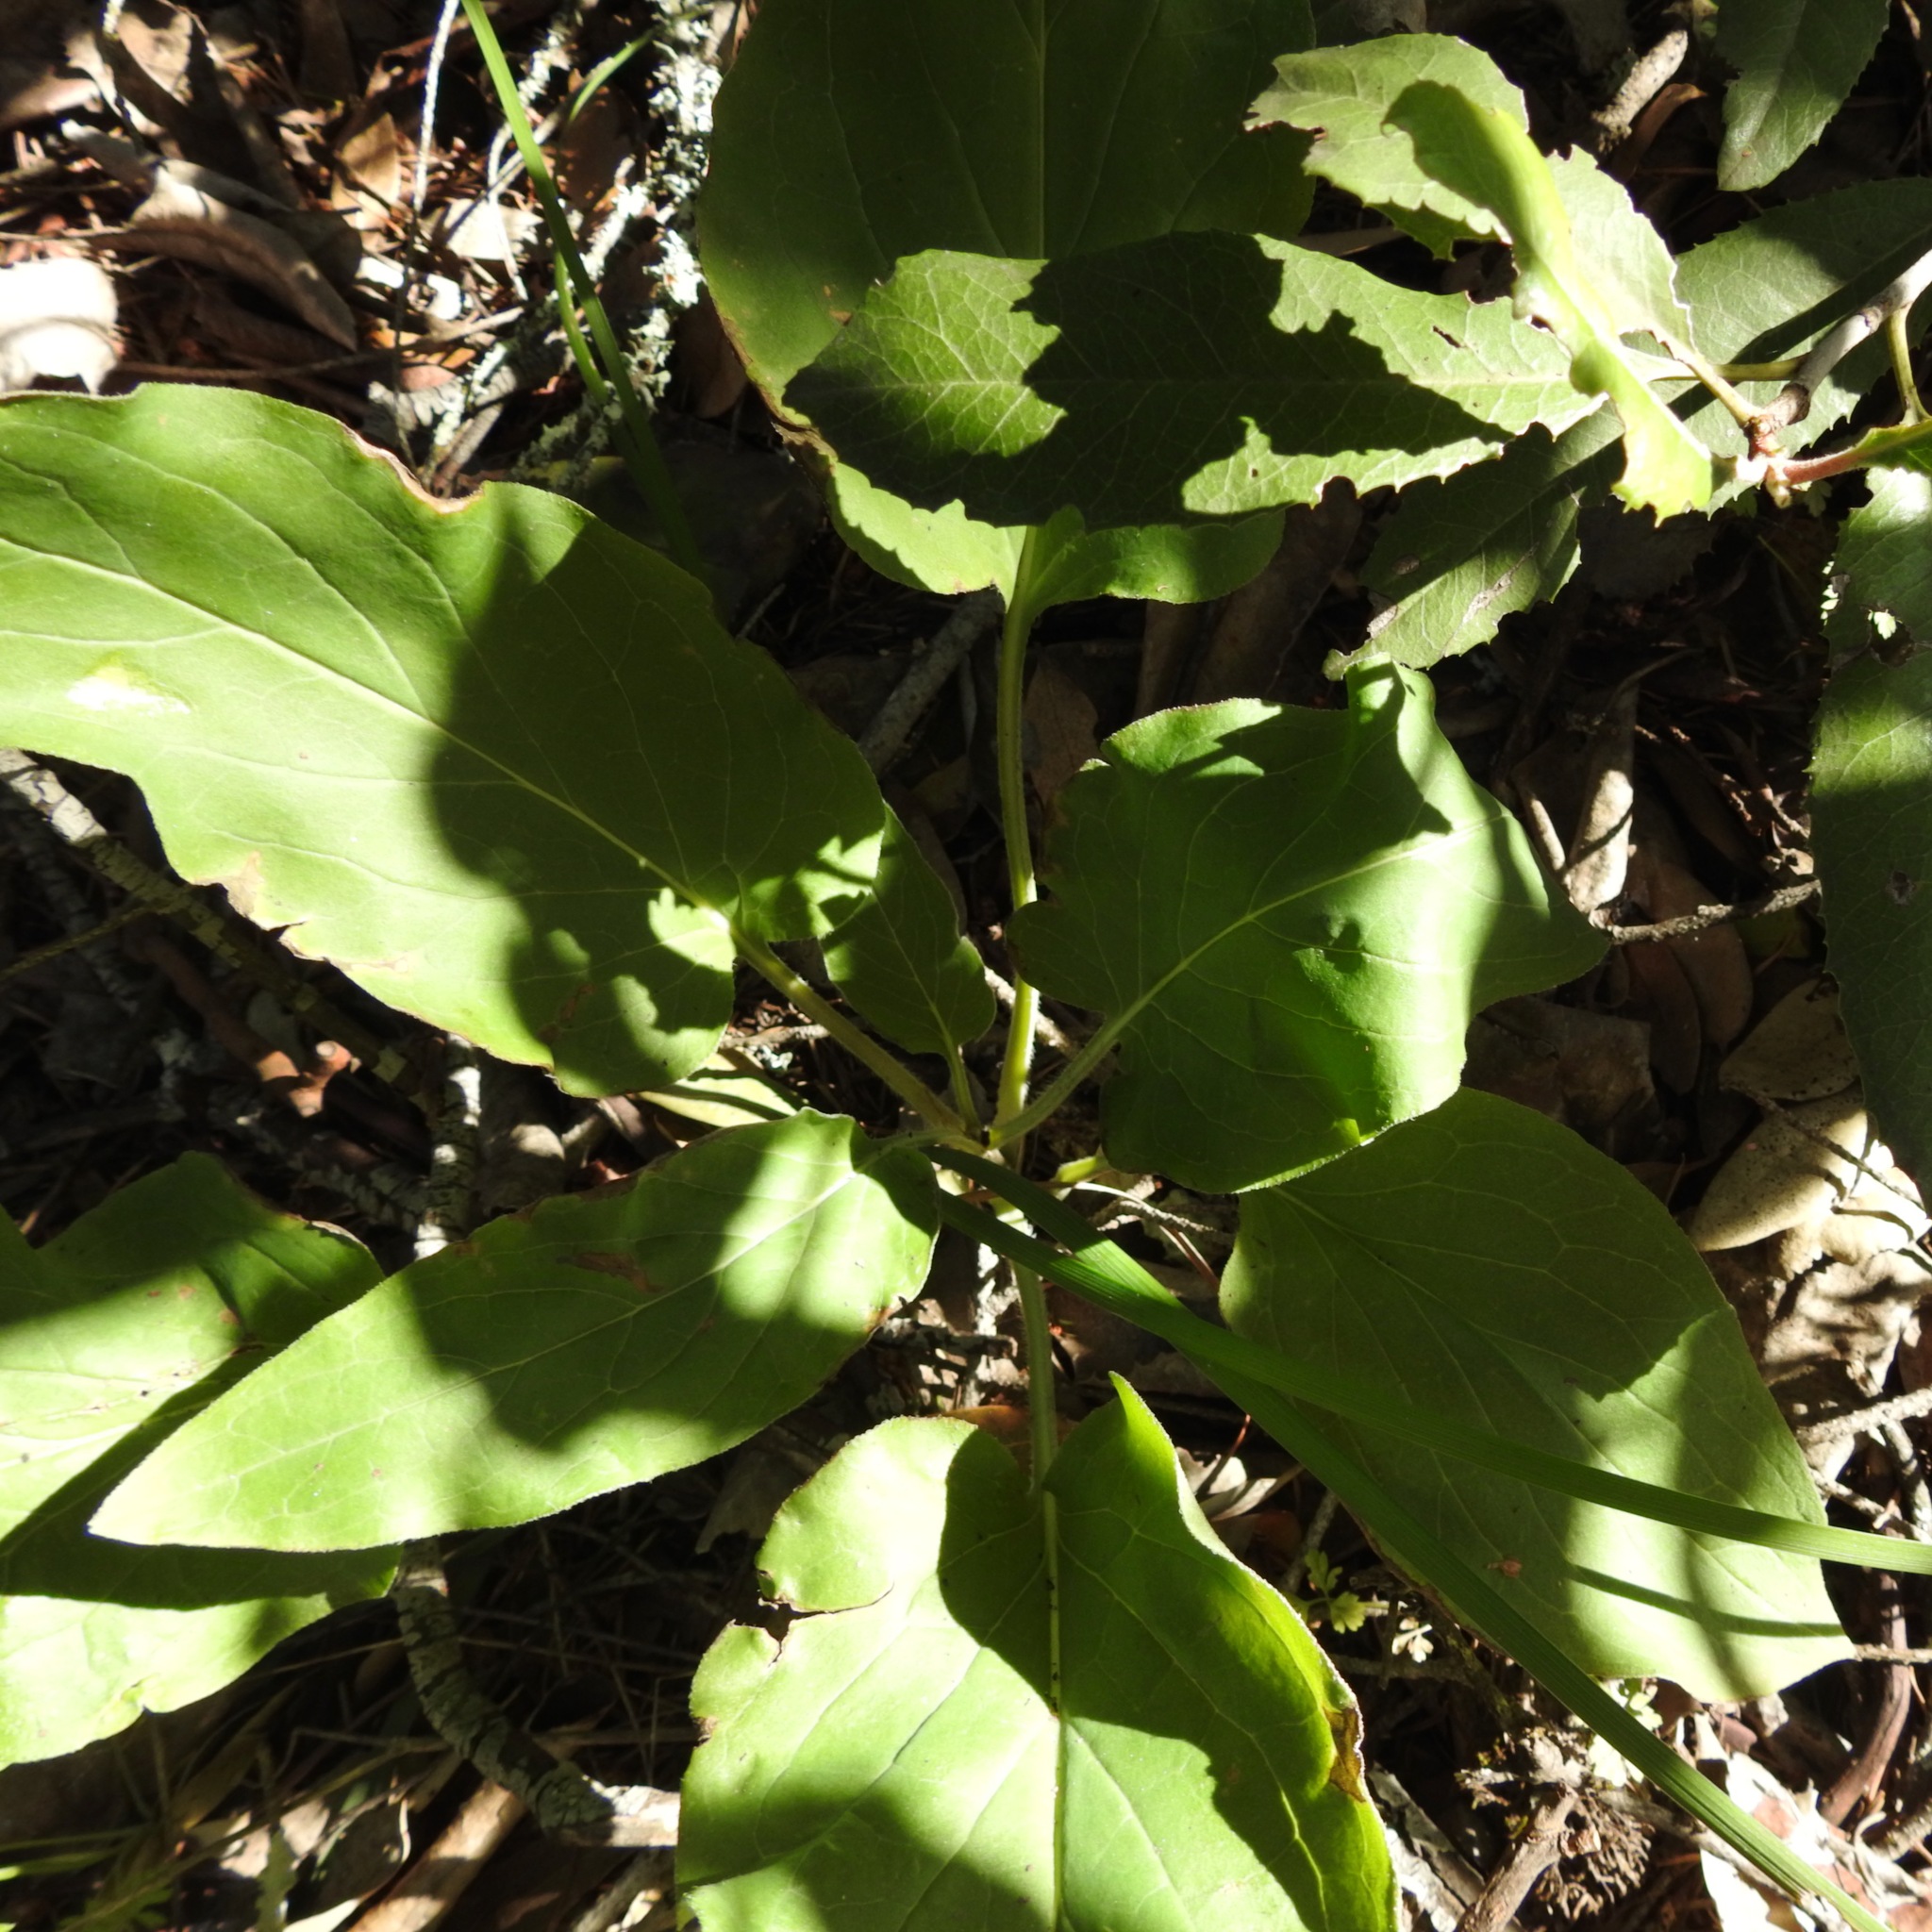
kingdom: Plantae
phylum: Tracheophyta
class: Magnoliopsida
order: Boraginales
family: Boraginaceae
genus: Adelinia
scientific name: Adelinia grande
